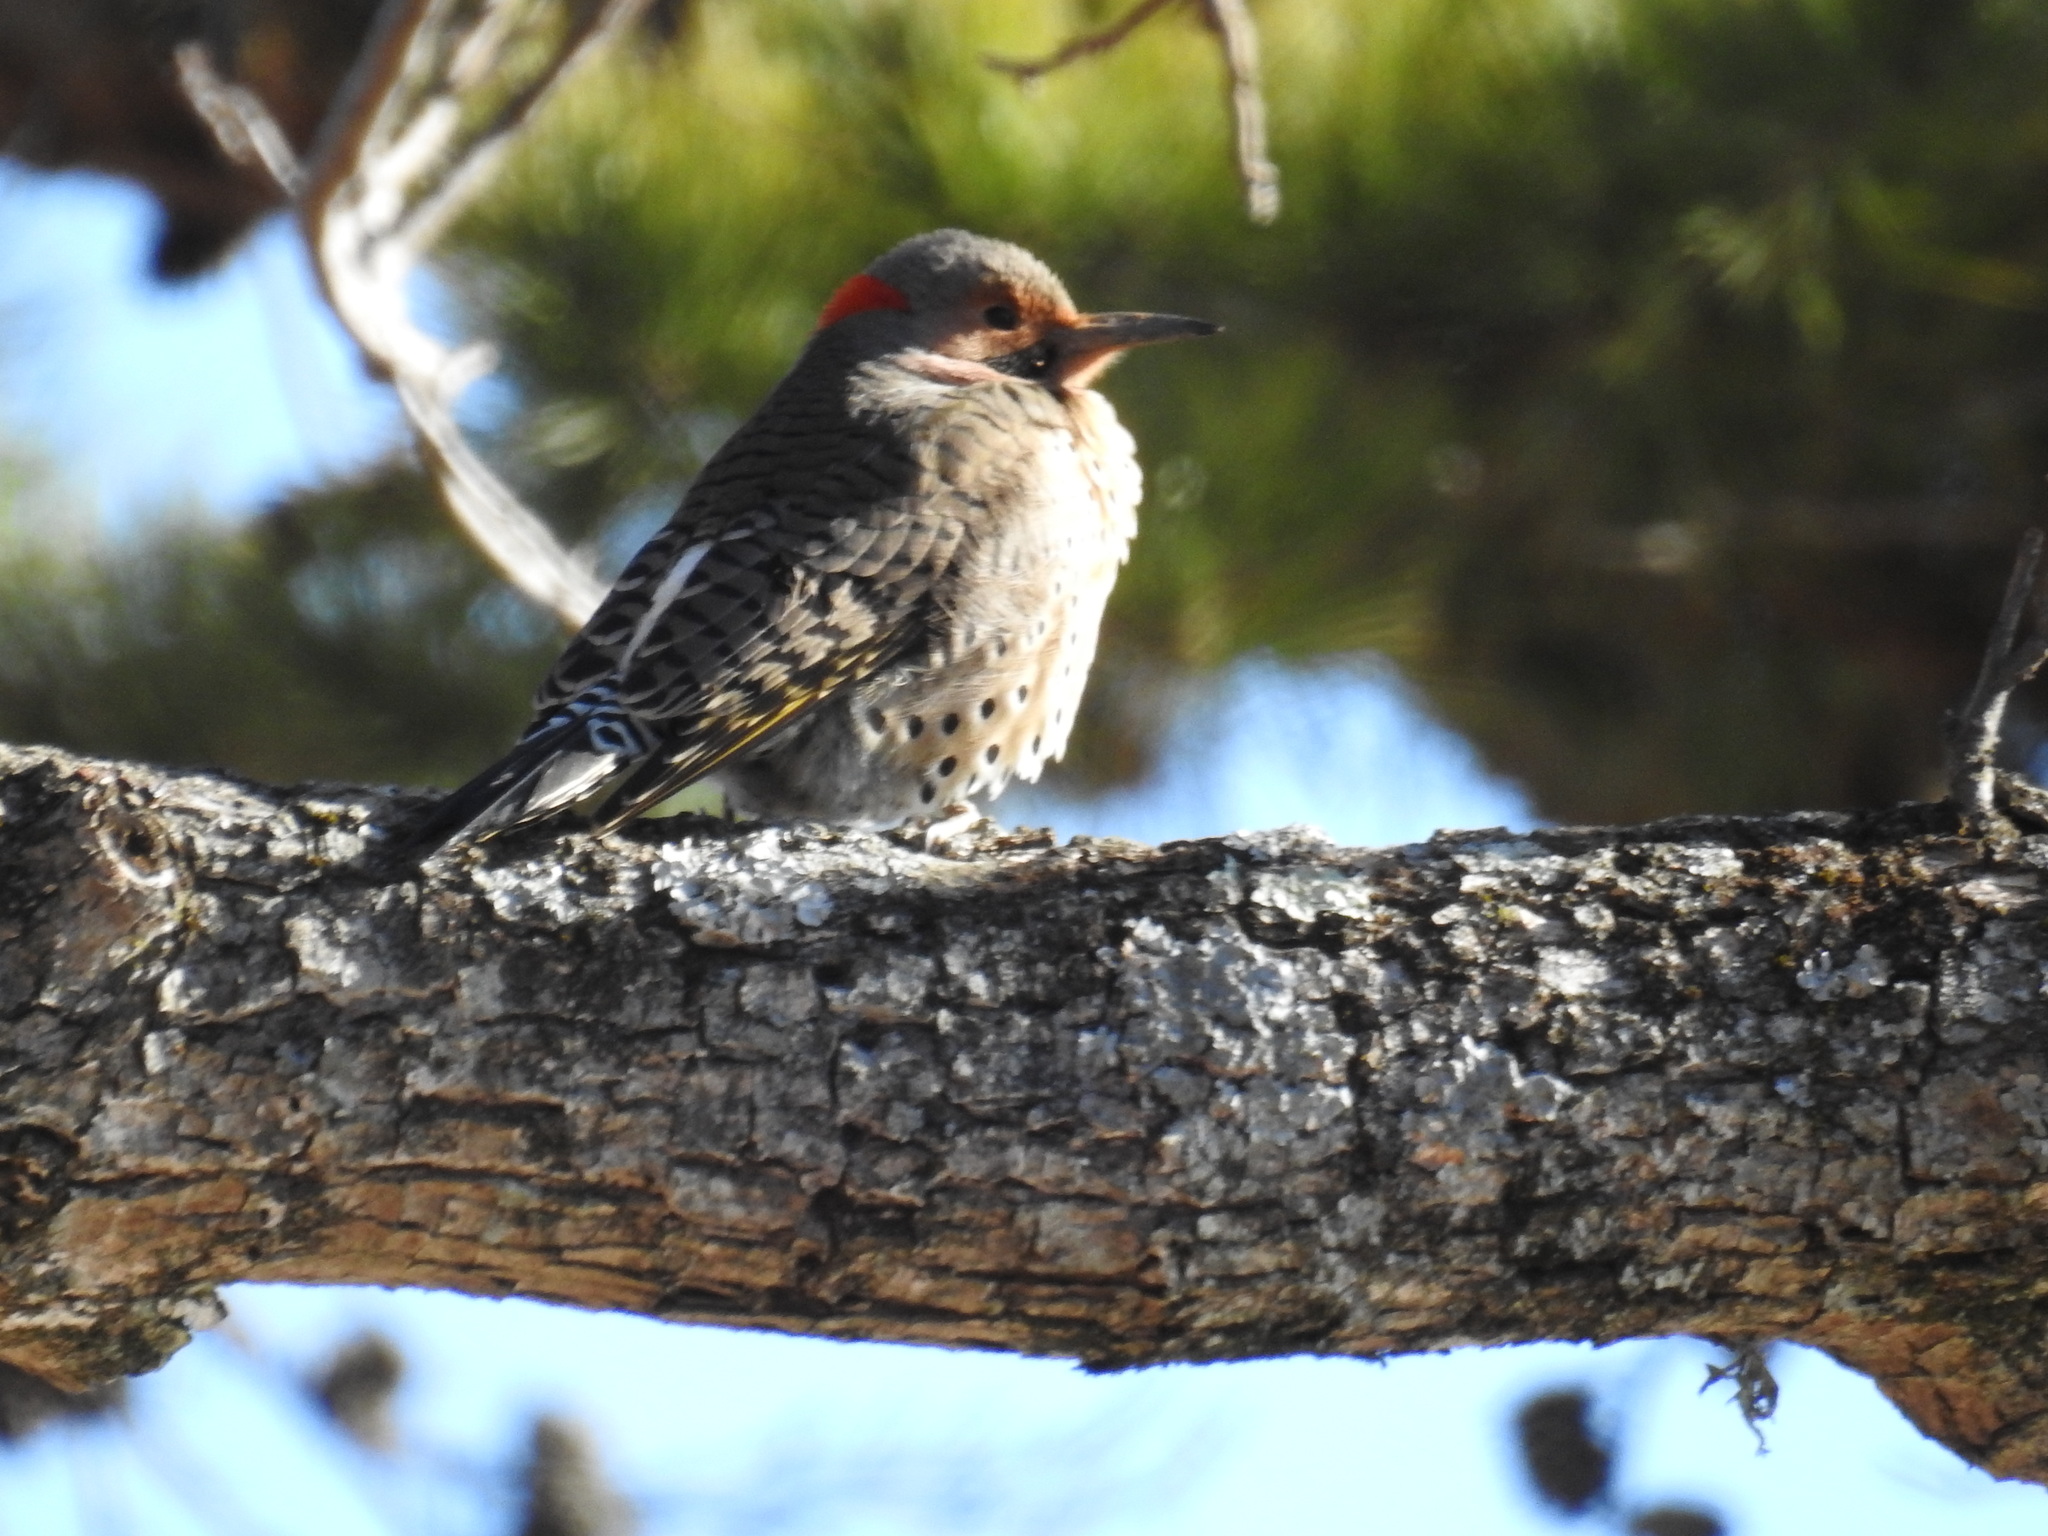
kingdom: Animalia
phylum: Chordata
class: Aves
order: Piciformes
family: Picidae
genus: Colaptes
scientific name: Colaptes auratus
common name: Northern flicker
